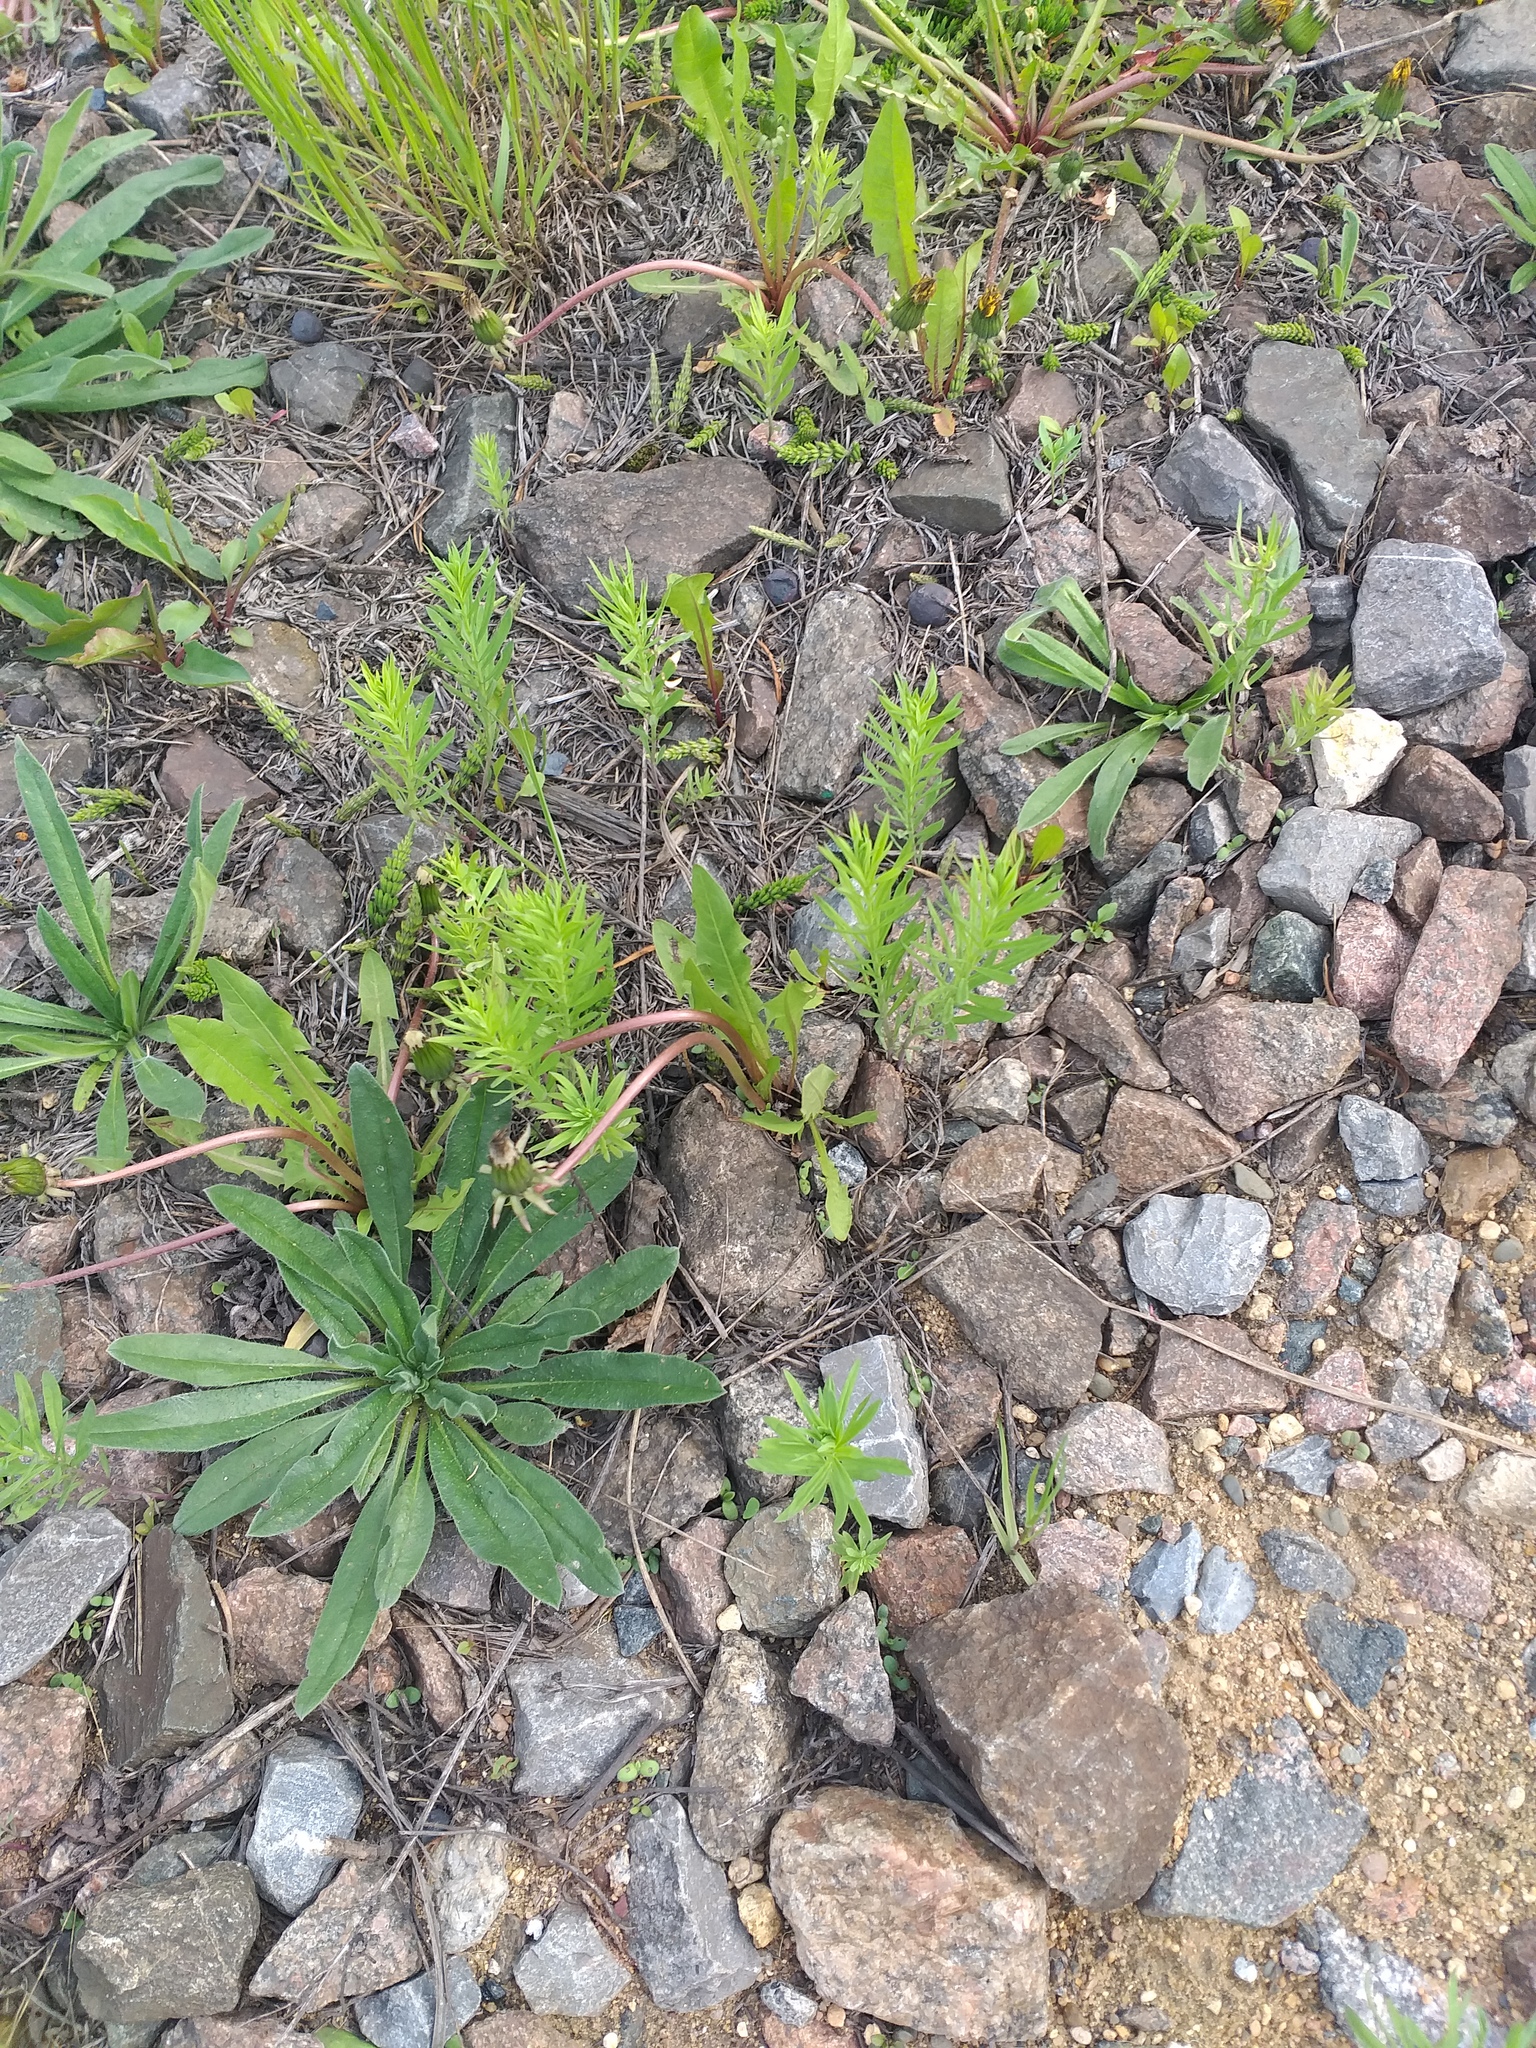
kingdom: Plantae
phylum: Tracheophyta
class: Magnoliopsida
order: Lamiales
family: Plantaginaceae
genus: Linaria
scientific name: Linaria vulgaris
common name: Butter and eggs
